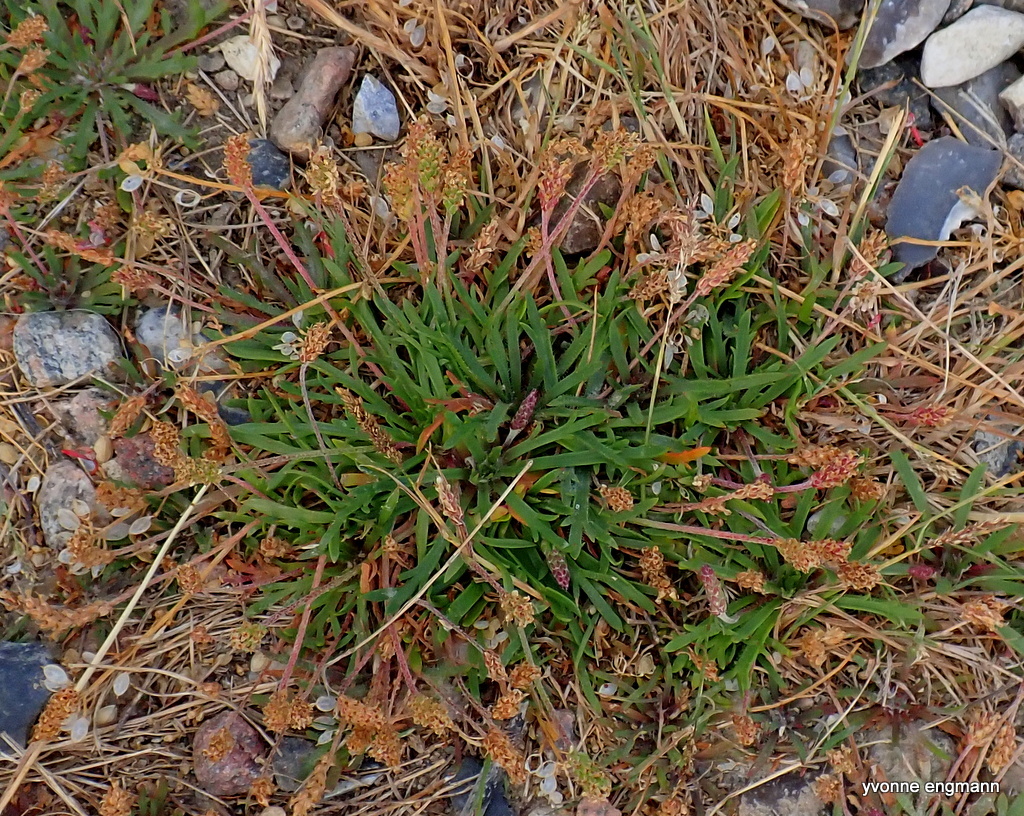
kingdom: Plantae
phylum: Tracheophyta
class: Magnoliopsida
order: Lamiales
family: Plantaginaceae
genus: Plantago
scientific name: Plantago coronopus
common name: Buck's-horn plantain
